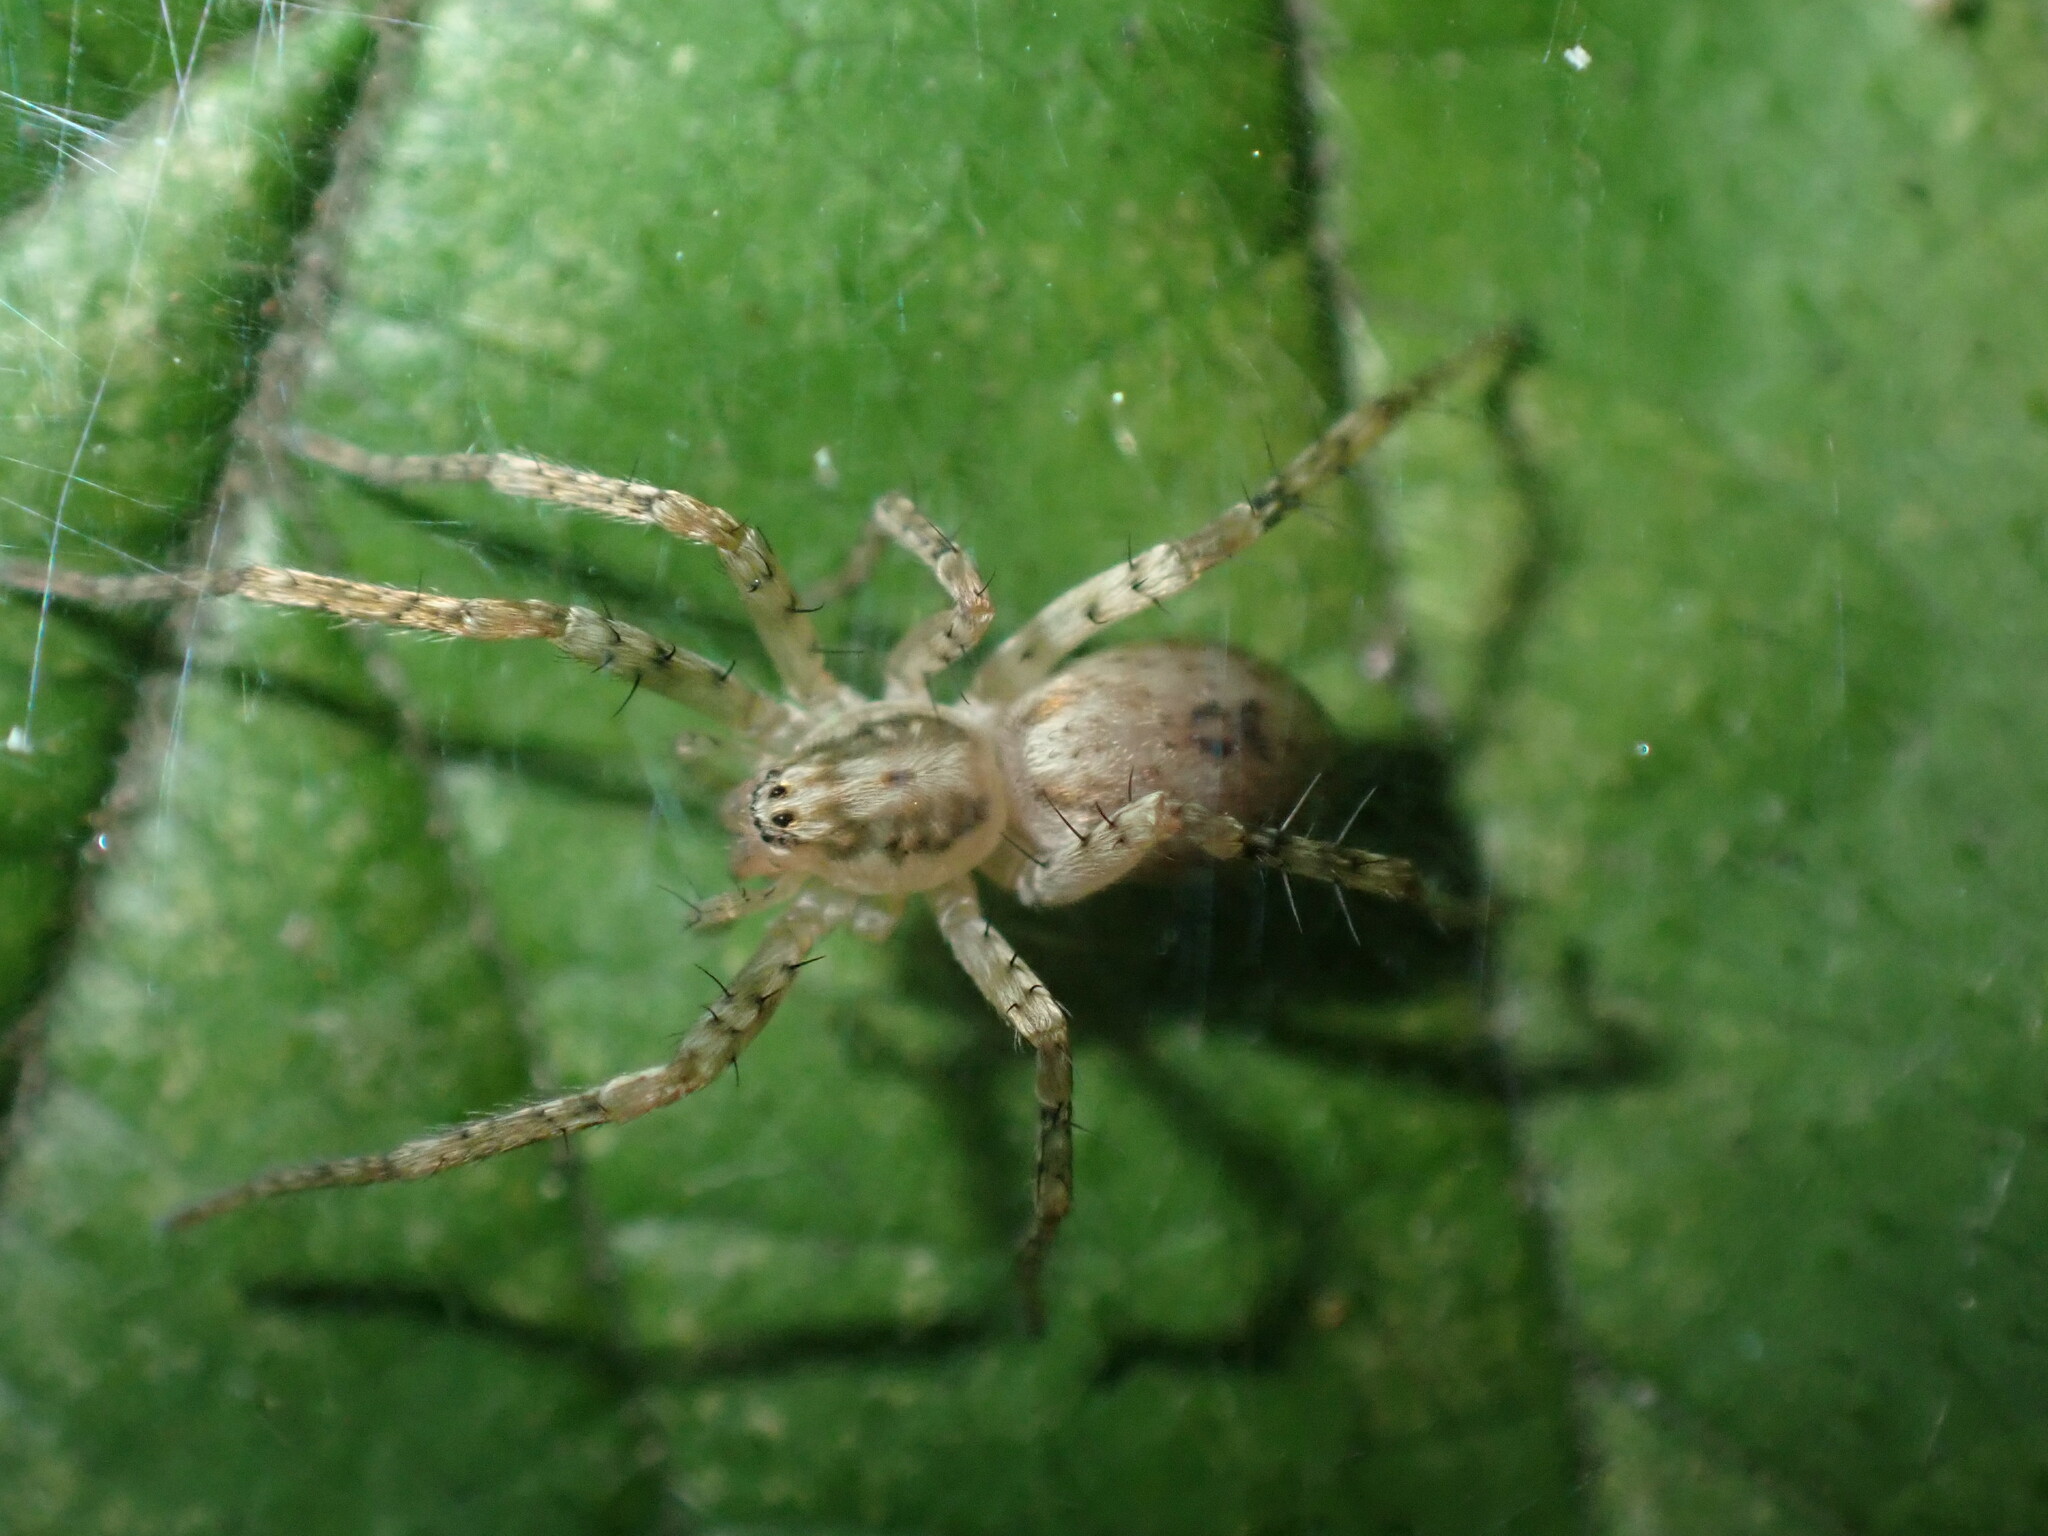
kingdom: Animalia
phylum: Arthropoda
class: Arachnida
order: Araneae
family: Anyphaenidae
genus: Anyphaena
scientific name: Anyphaena accentuata
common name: Buzzing spider
